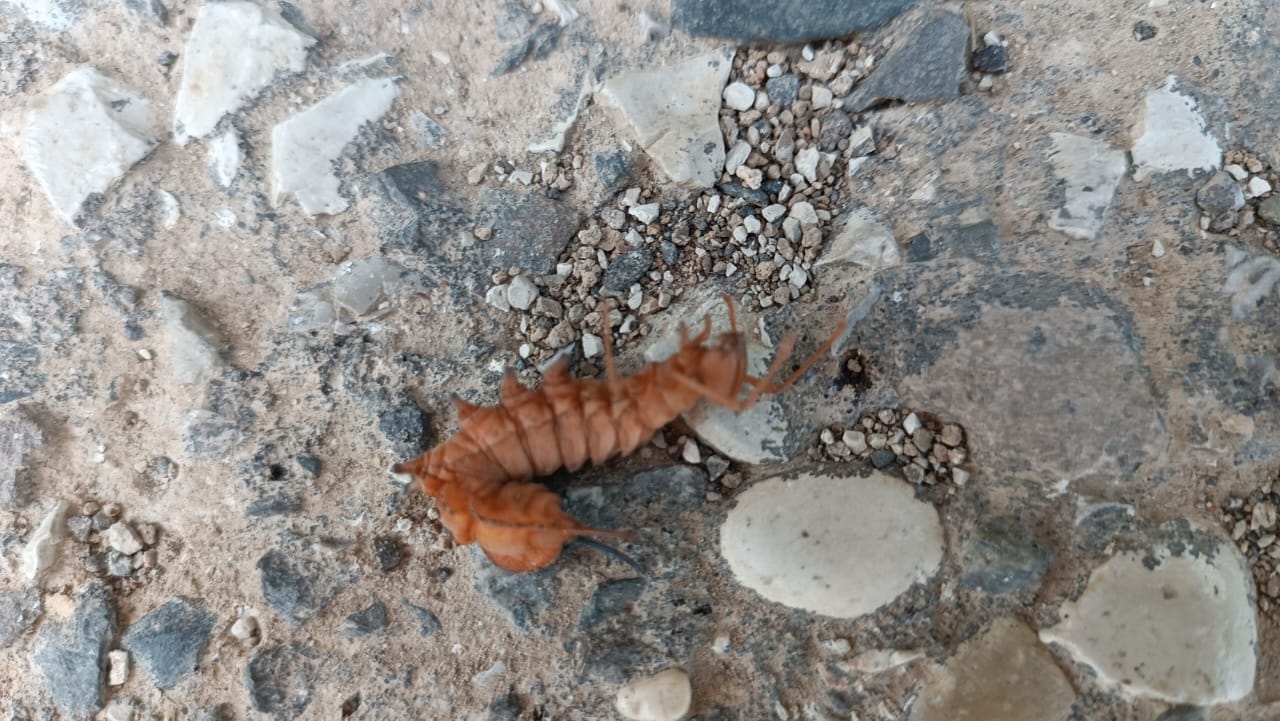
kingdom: Animalia
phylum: Arthropoda
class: Insecta
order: Lepidoptera
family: Notodontidae
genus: Stauropus
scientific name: Stauropus fagi
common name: Lobster moth
